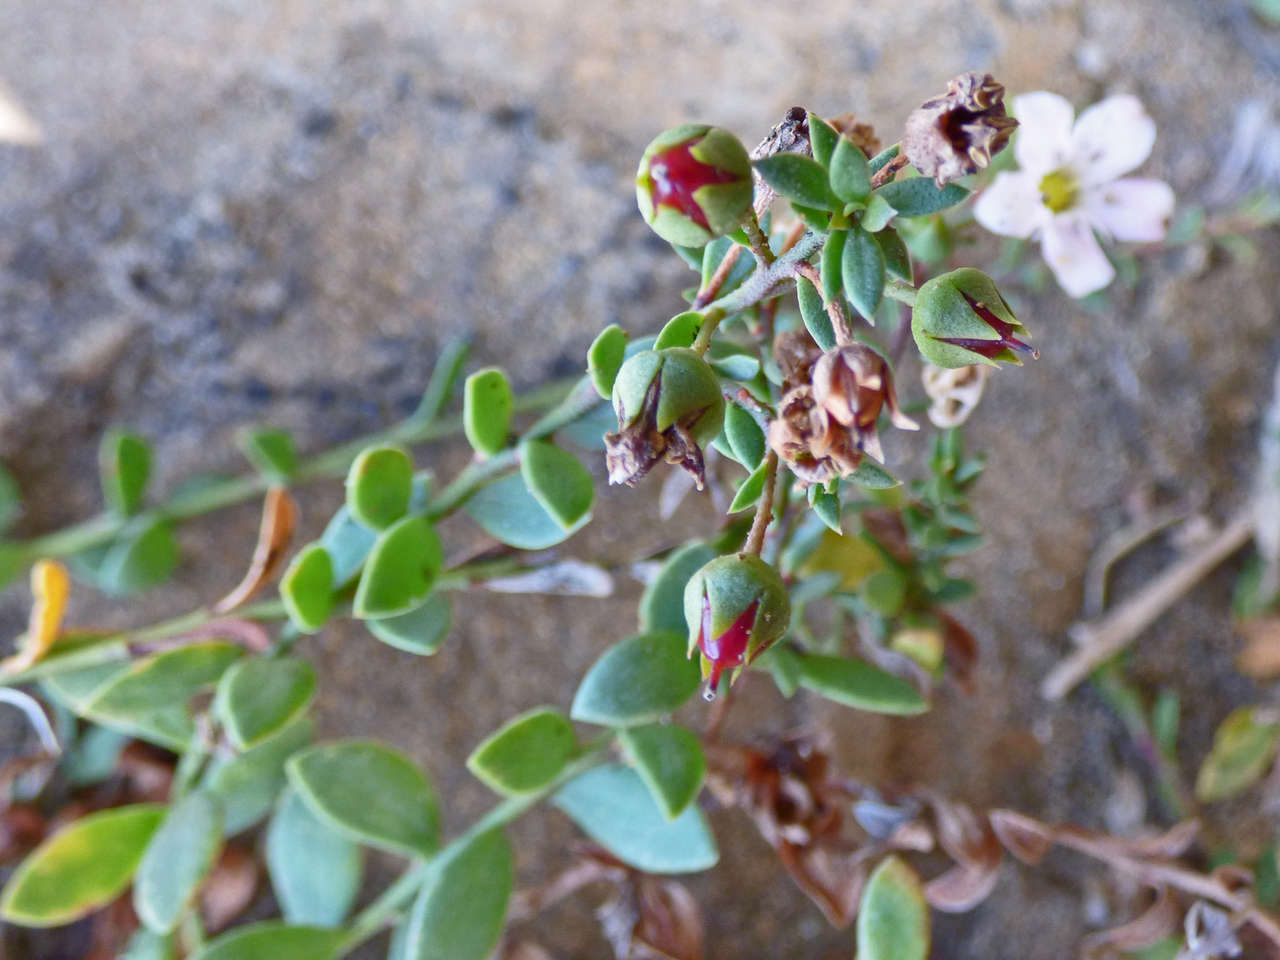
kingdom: Plantae
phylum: Tracheophyta
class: Magnoliopsida
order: Ericales
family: Primulaceae
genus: Samolus
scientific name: Samolus repens
